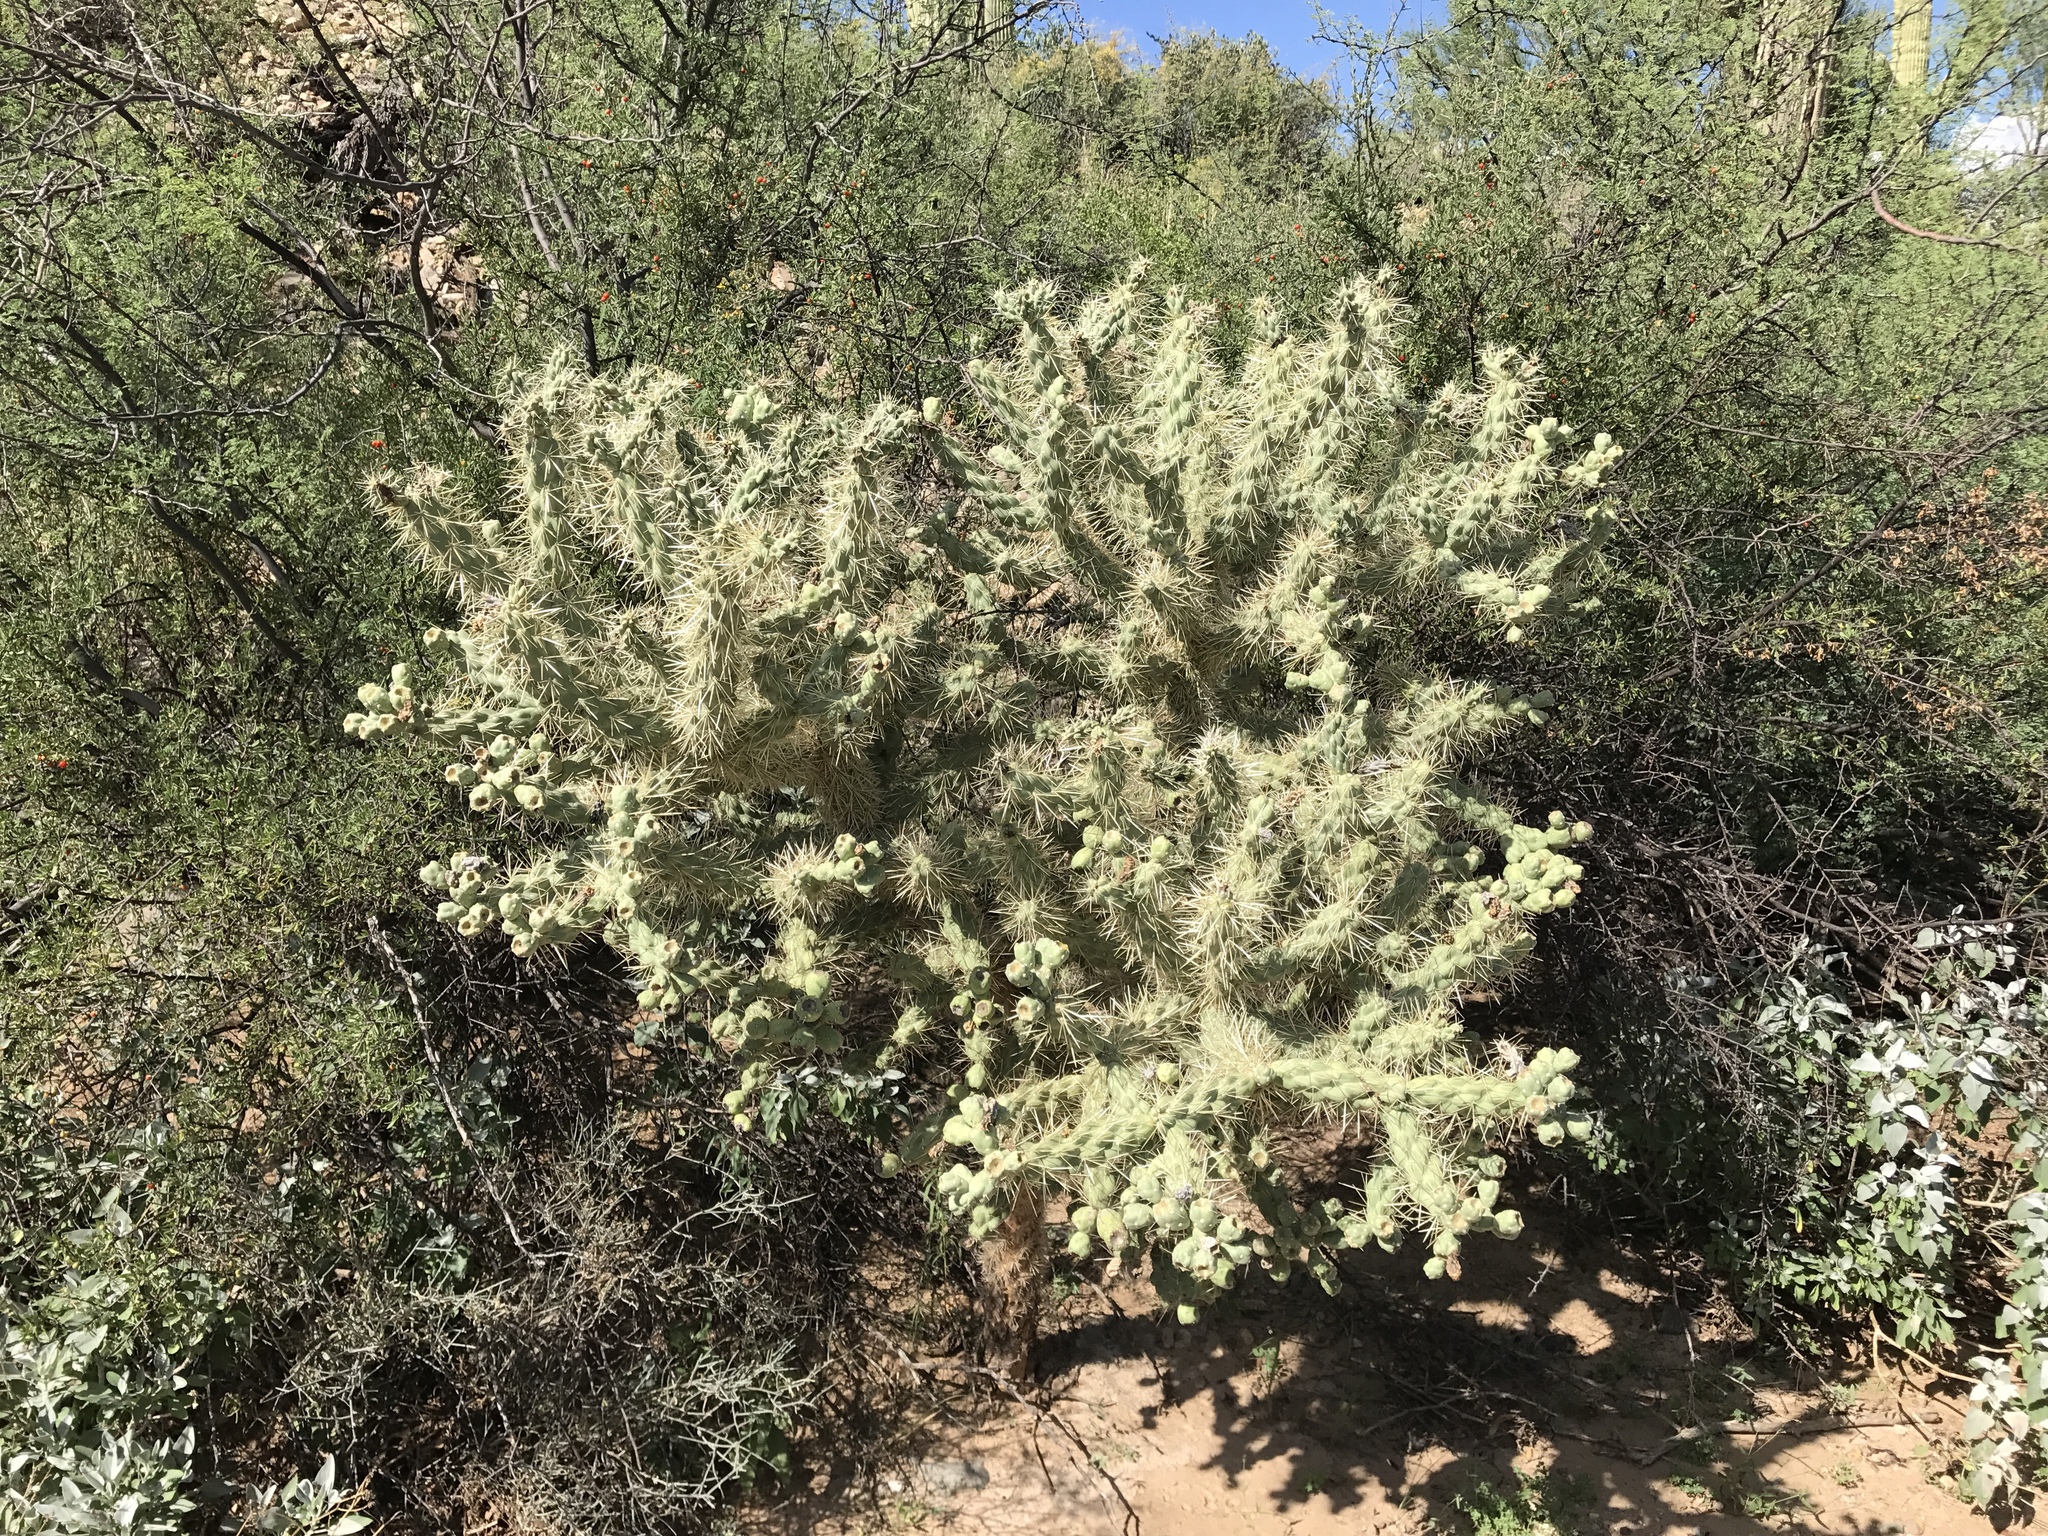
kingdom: Plantae
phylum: Tracheophyta
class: Magnoliopsida
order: Caryophyllales
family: Cactaceae
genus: Cylindropuntia
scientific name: Cylindropuntia fulgida
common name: Jumping cholla
